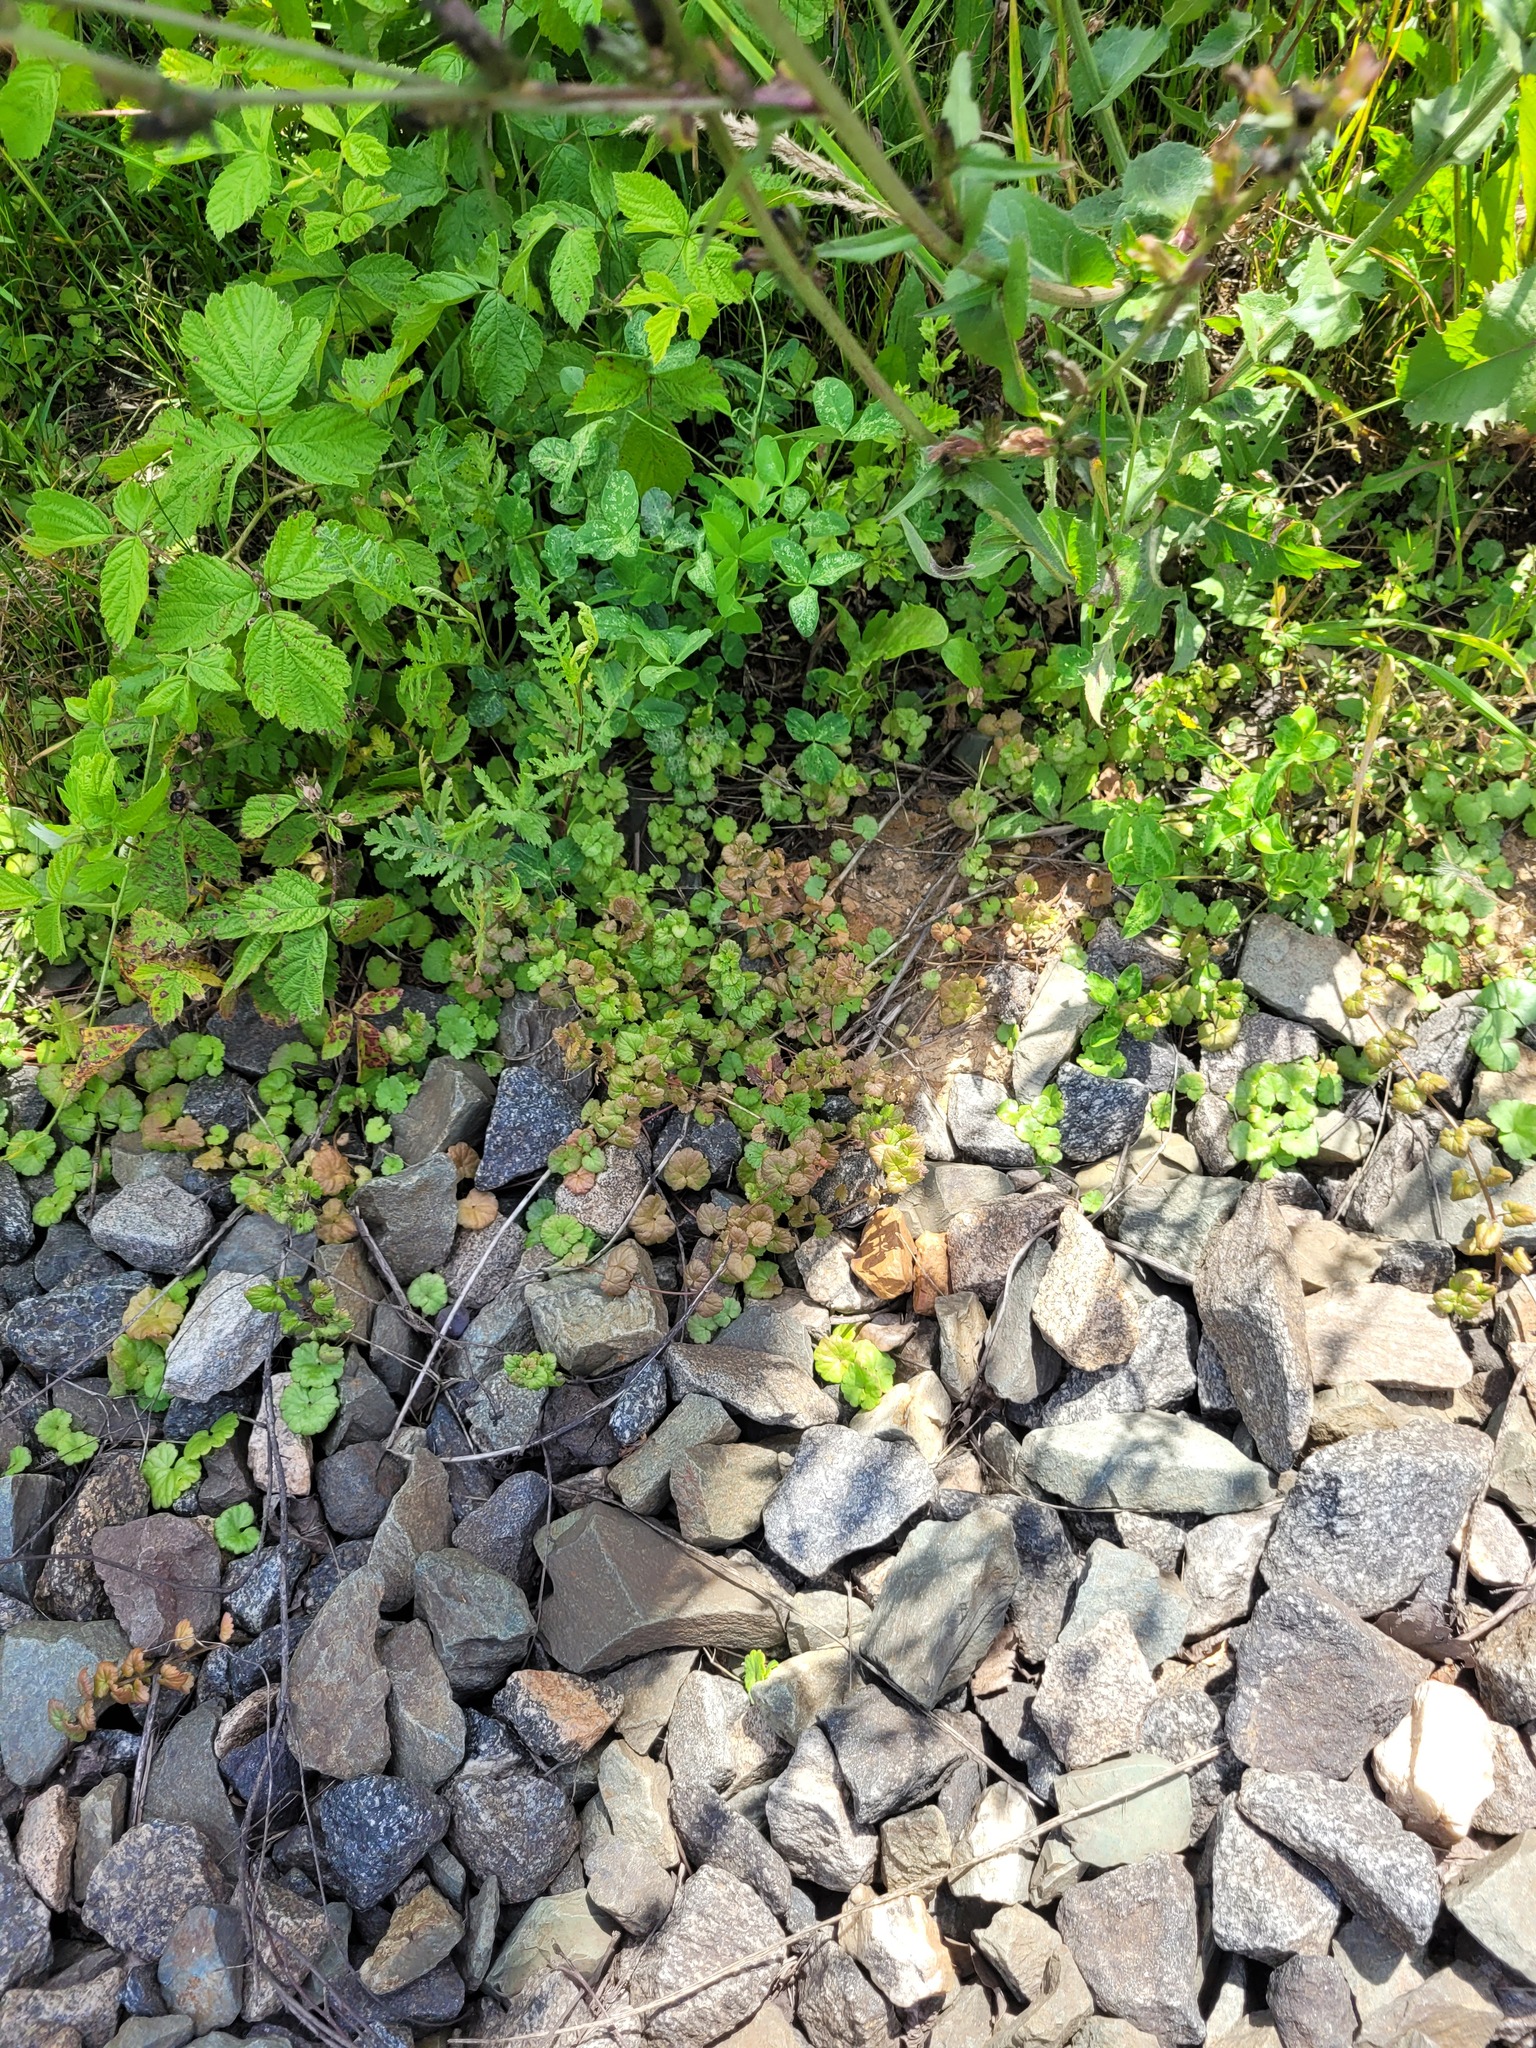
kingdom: Plantae
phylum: Tracheophyta
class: Magnoliopsida
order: Lamiales
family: Lamiaceae
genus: Glechoma
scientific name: Glechoma hederacea
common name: Ground ivy
